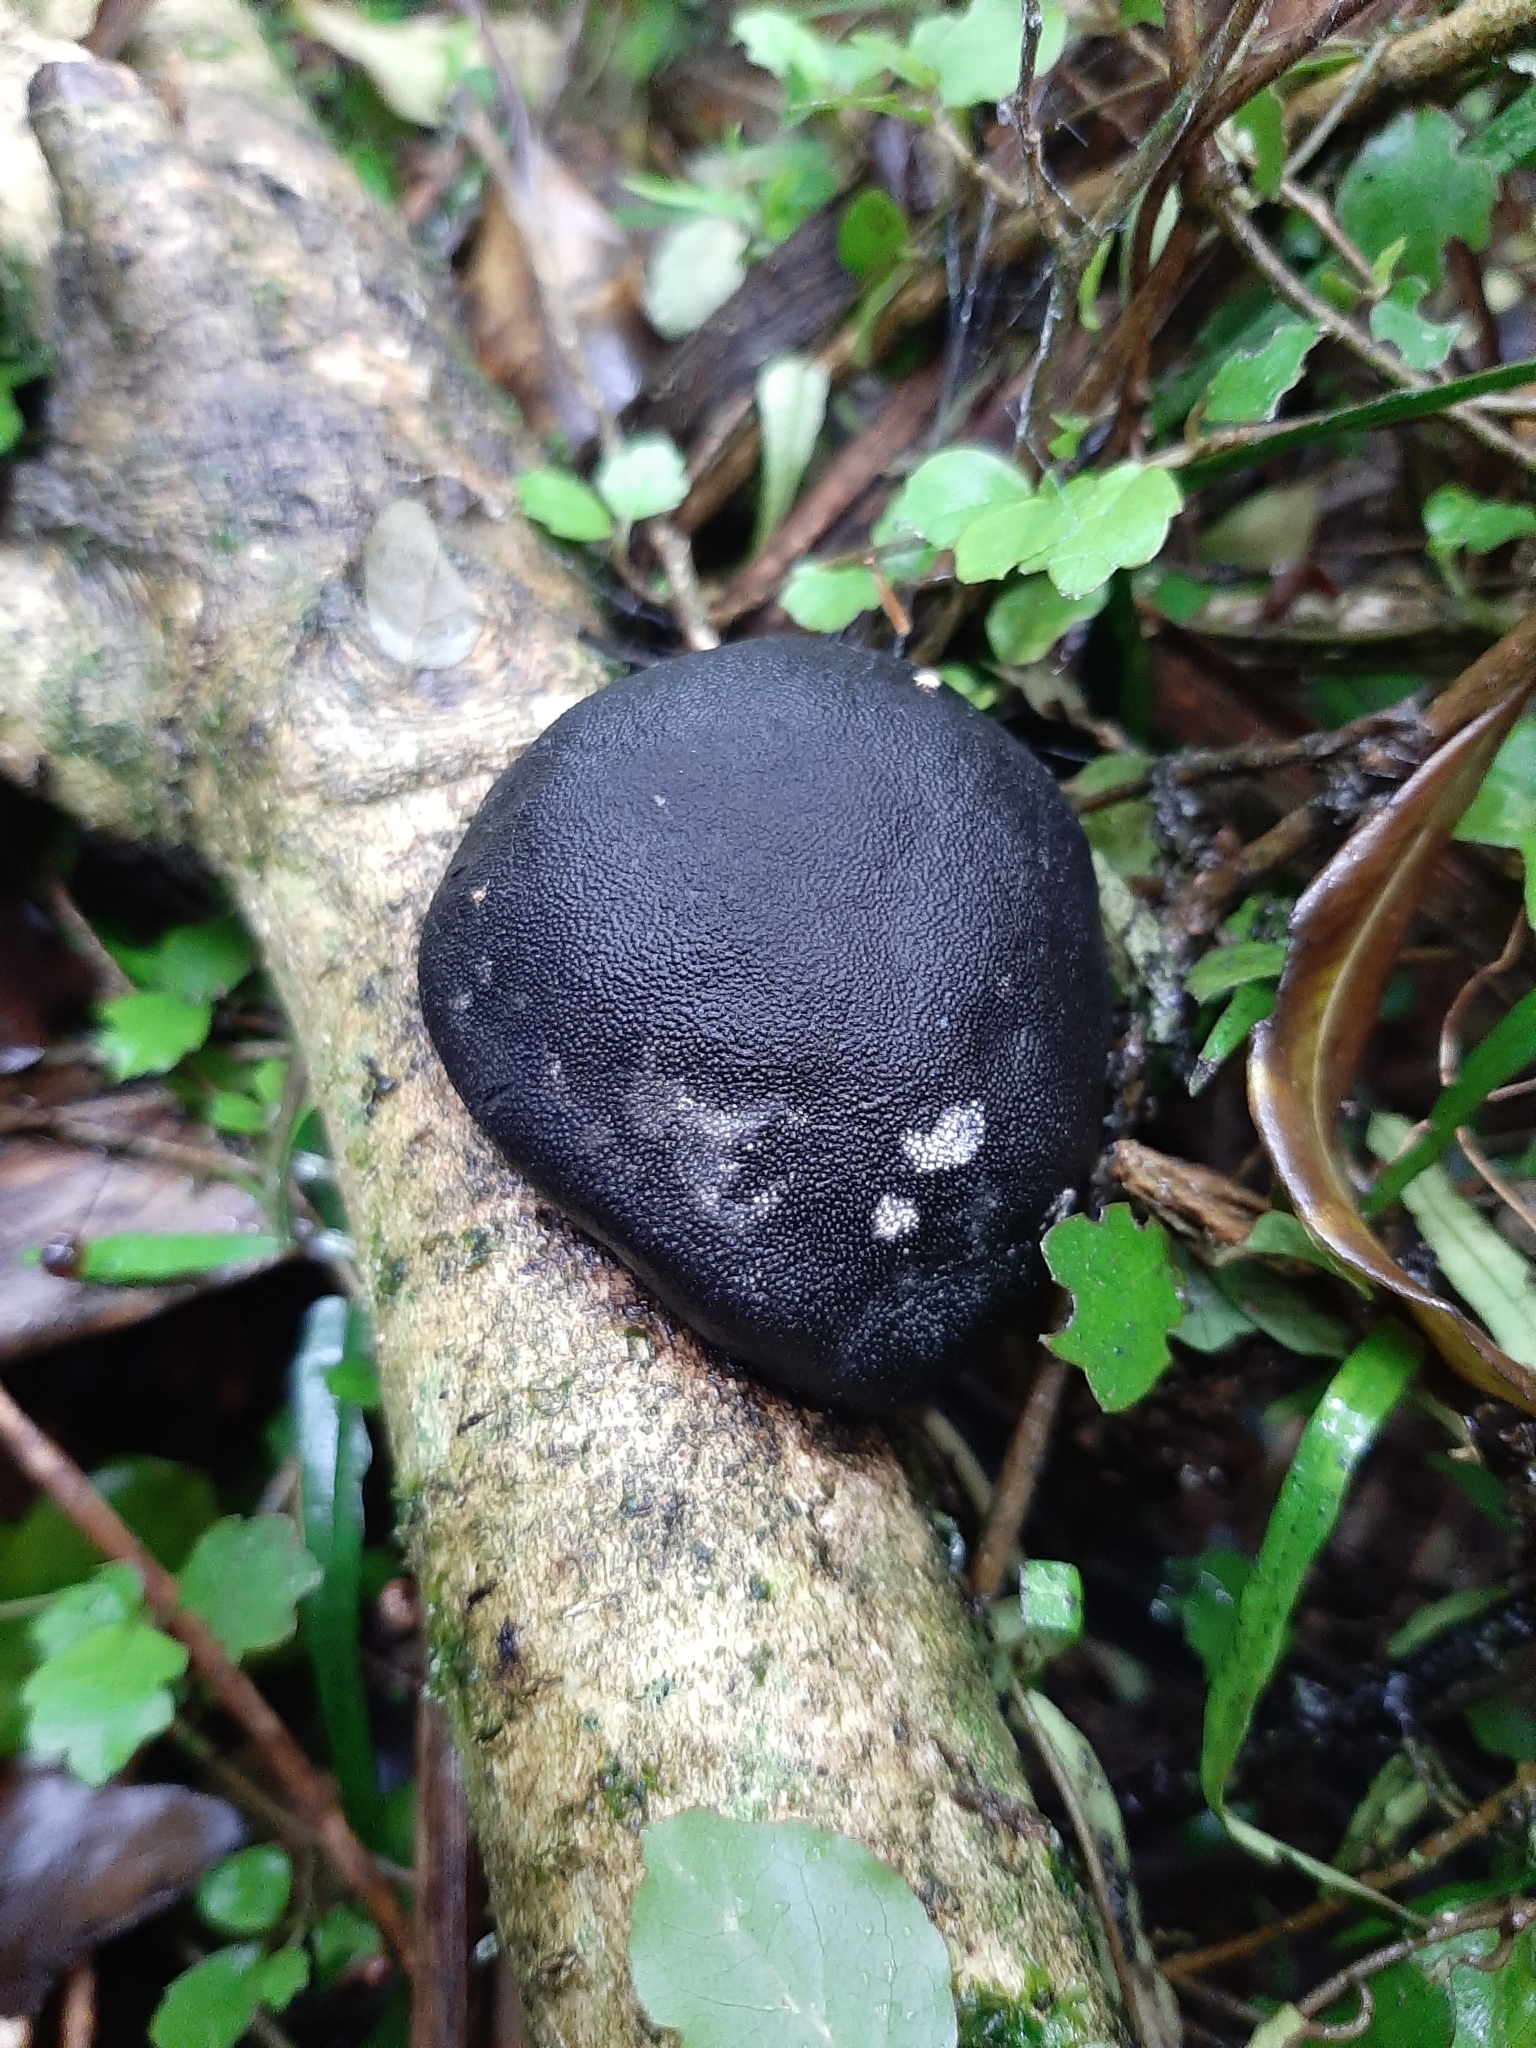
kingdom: Fungi
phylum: Ascomycota
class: Sordariomycetes
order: Xylariales
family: Hypoxylaceae
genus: Daldinia
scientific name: Daldinia
